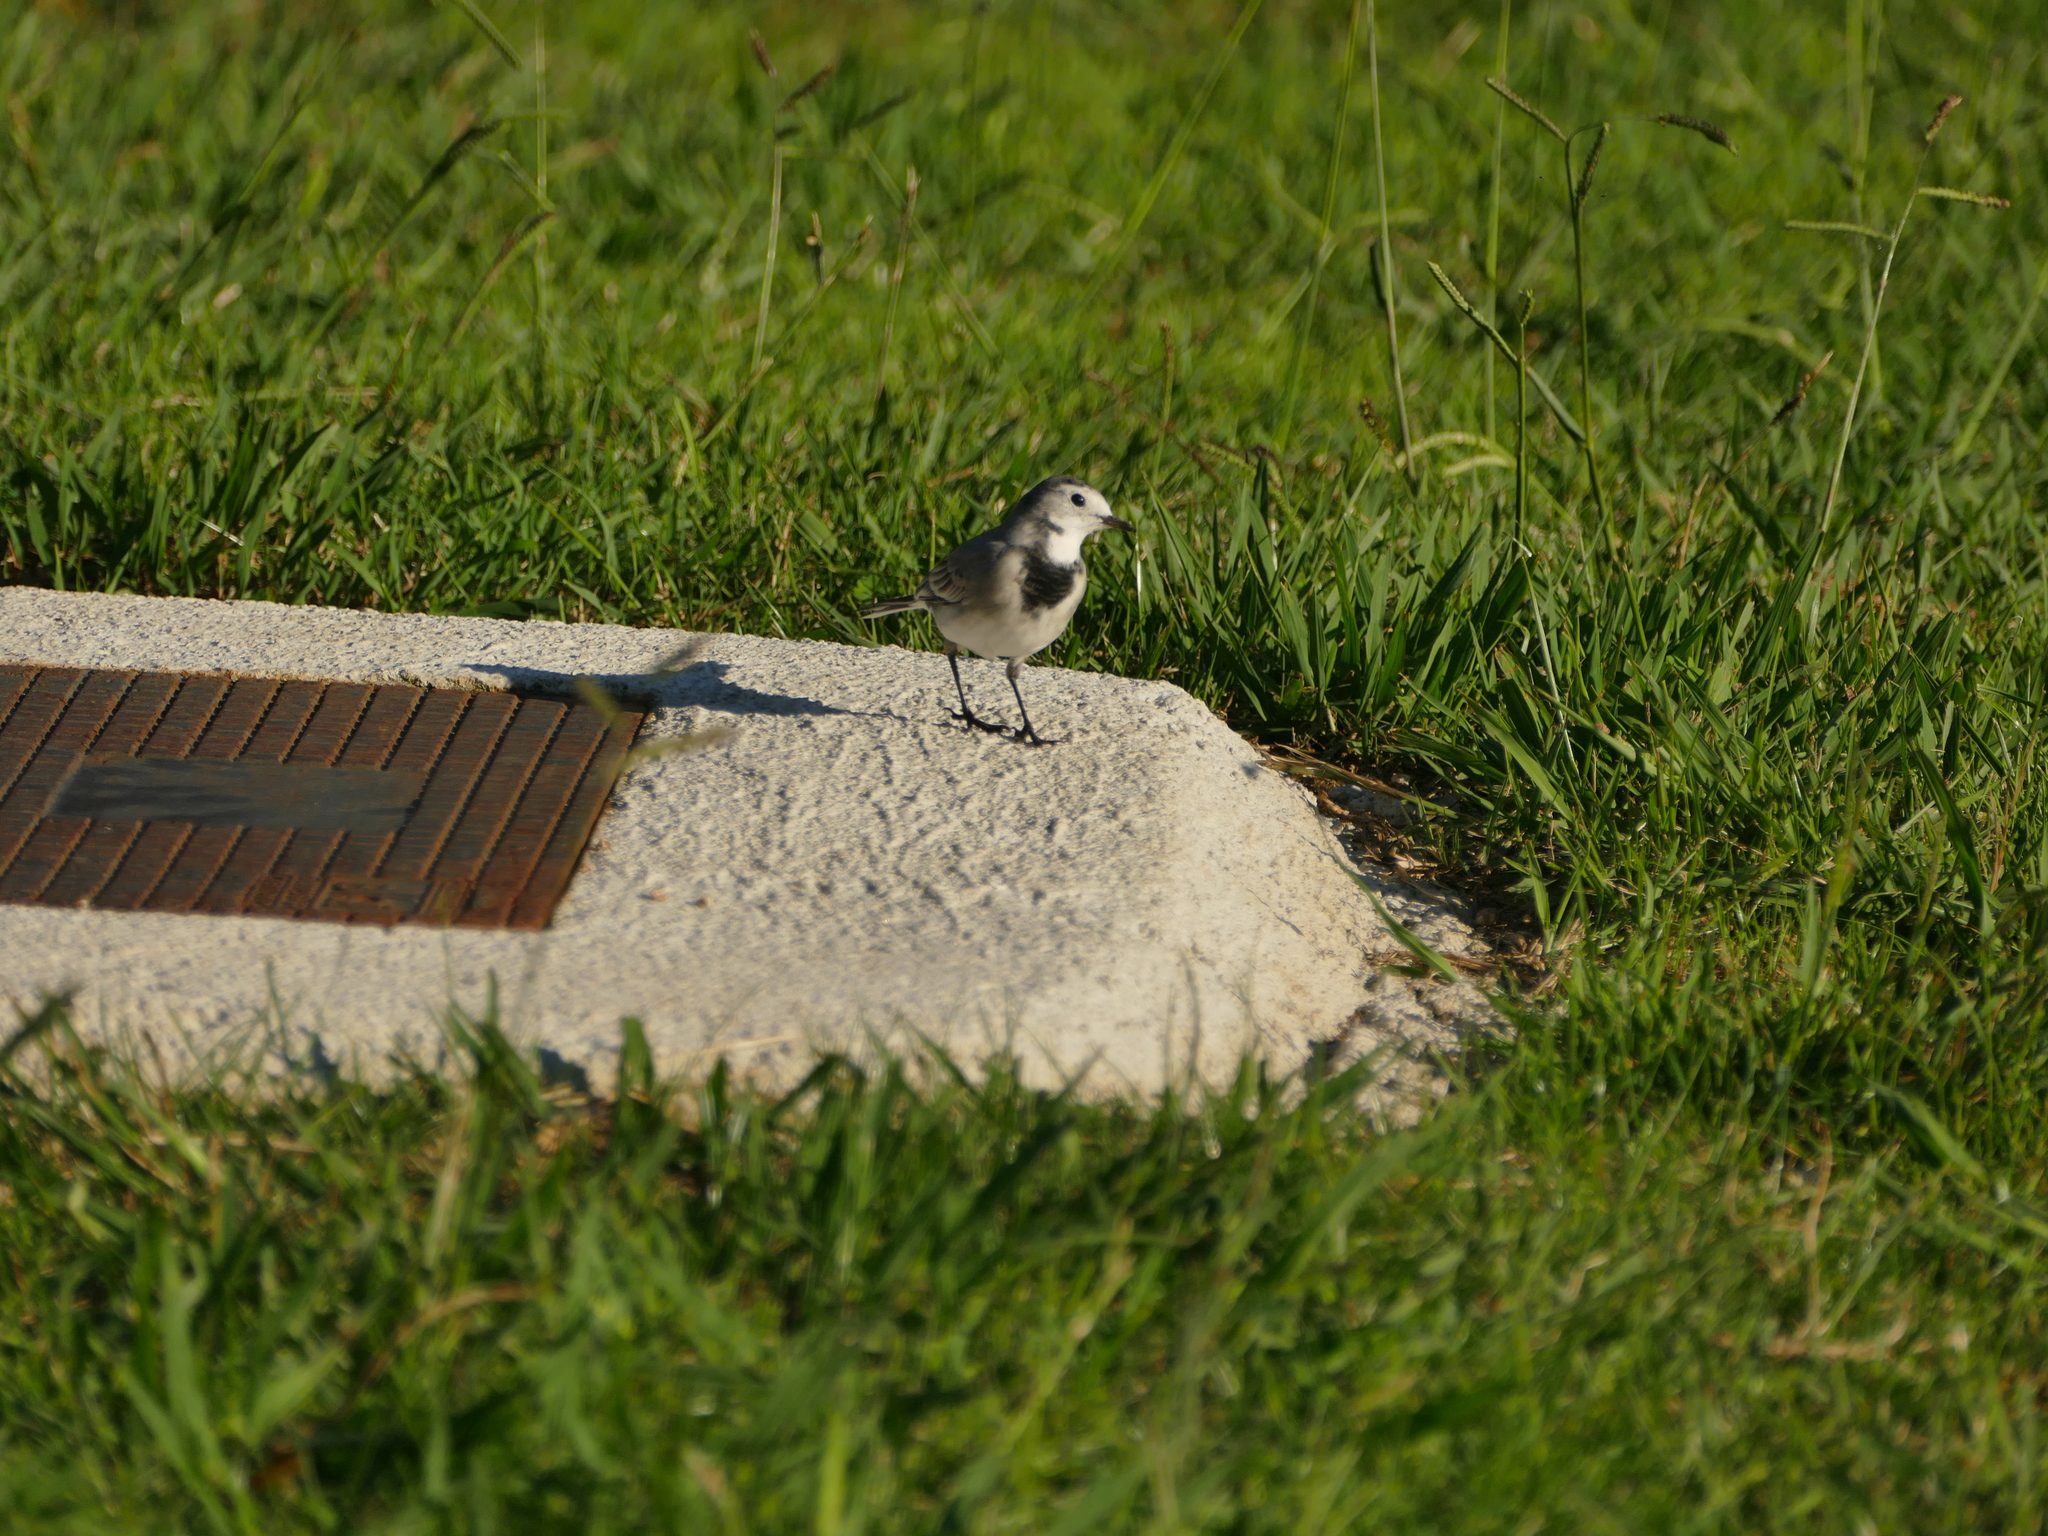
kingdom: Animalia
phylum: Chordata
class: Aves
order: Passeriformes
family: Motacillidae
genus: Motacilla
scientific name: Motacilla alba
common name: White wagtail
